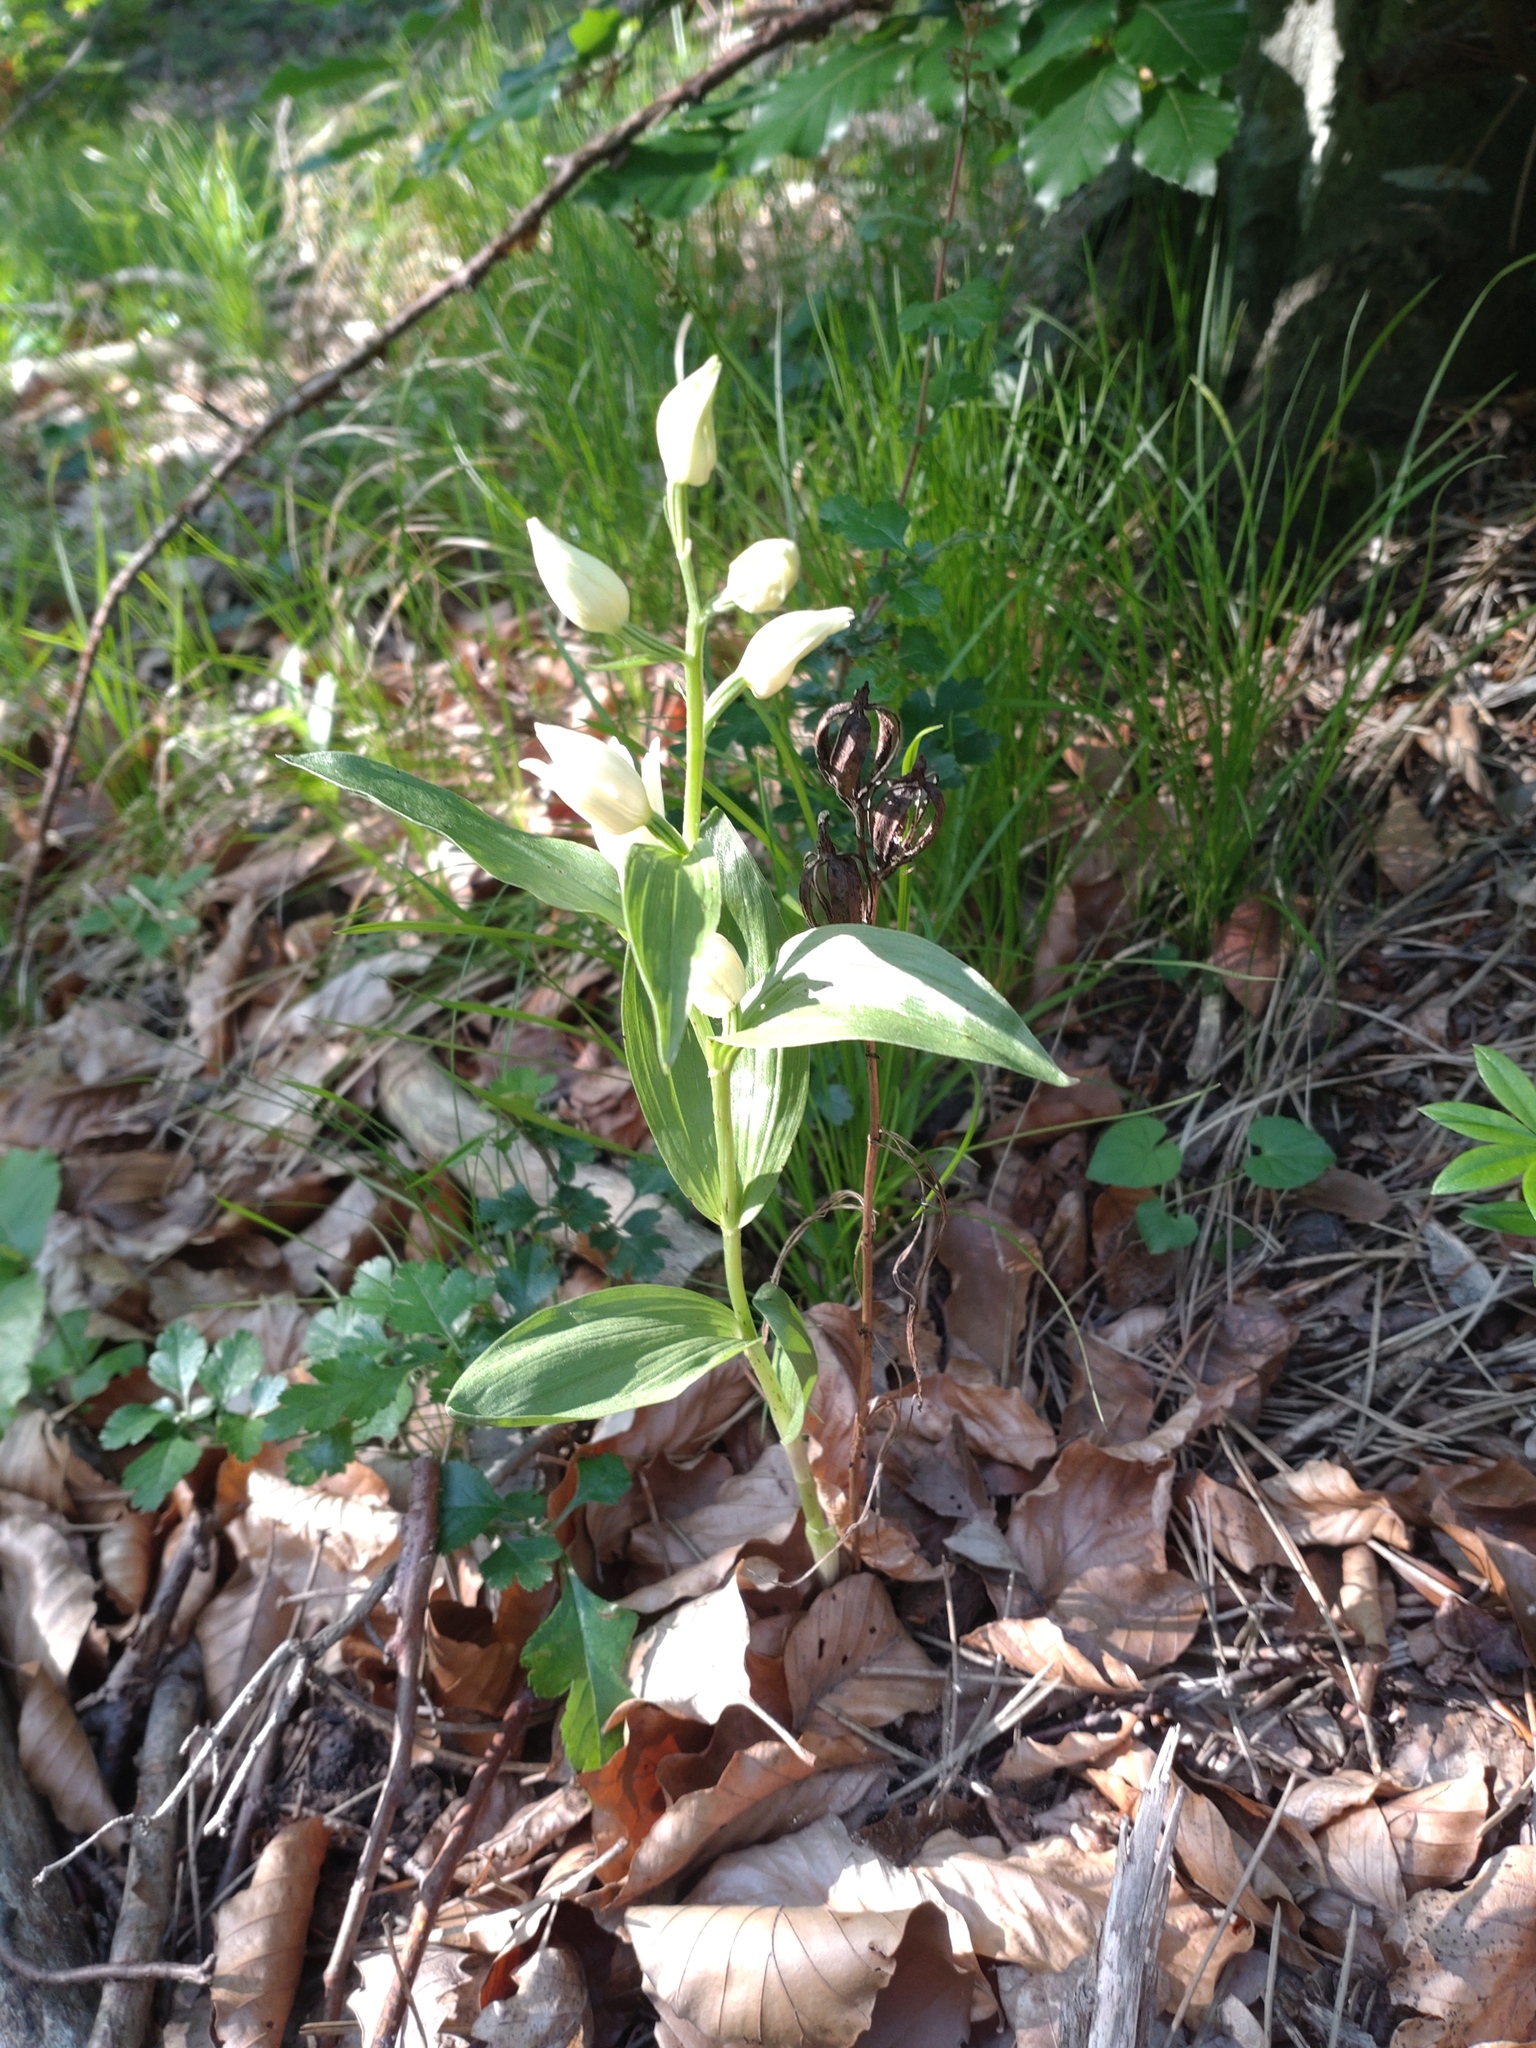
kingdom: Plantae
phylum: Tracheophyta
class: Liliopsida
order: Asparagales
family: Orchidaceae
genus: Cephalanthera
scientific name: Cephalanthera damasonium
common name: White helleborine
